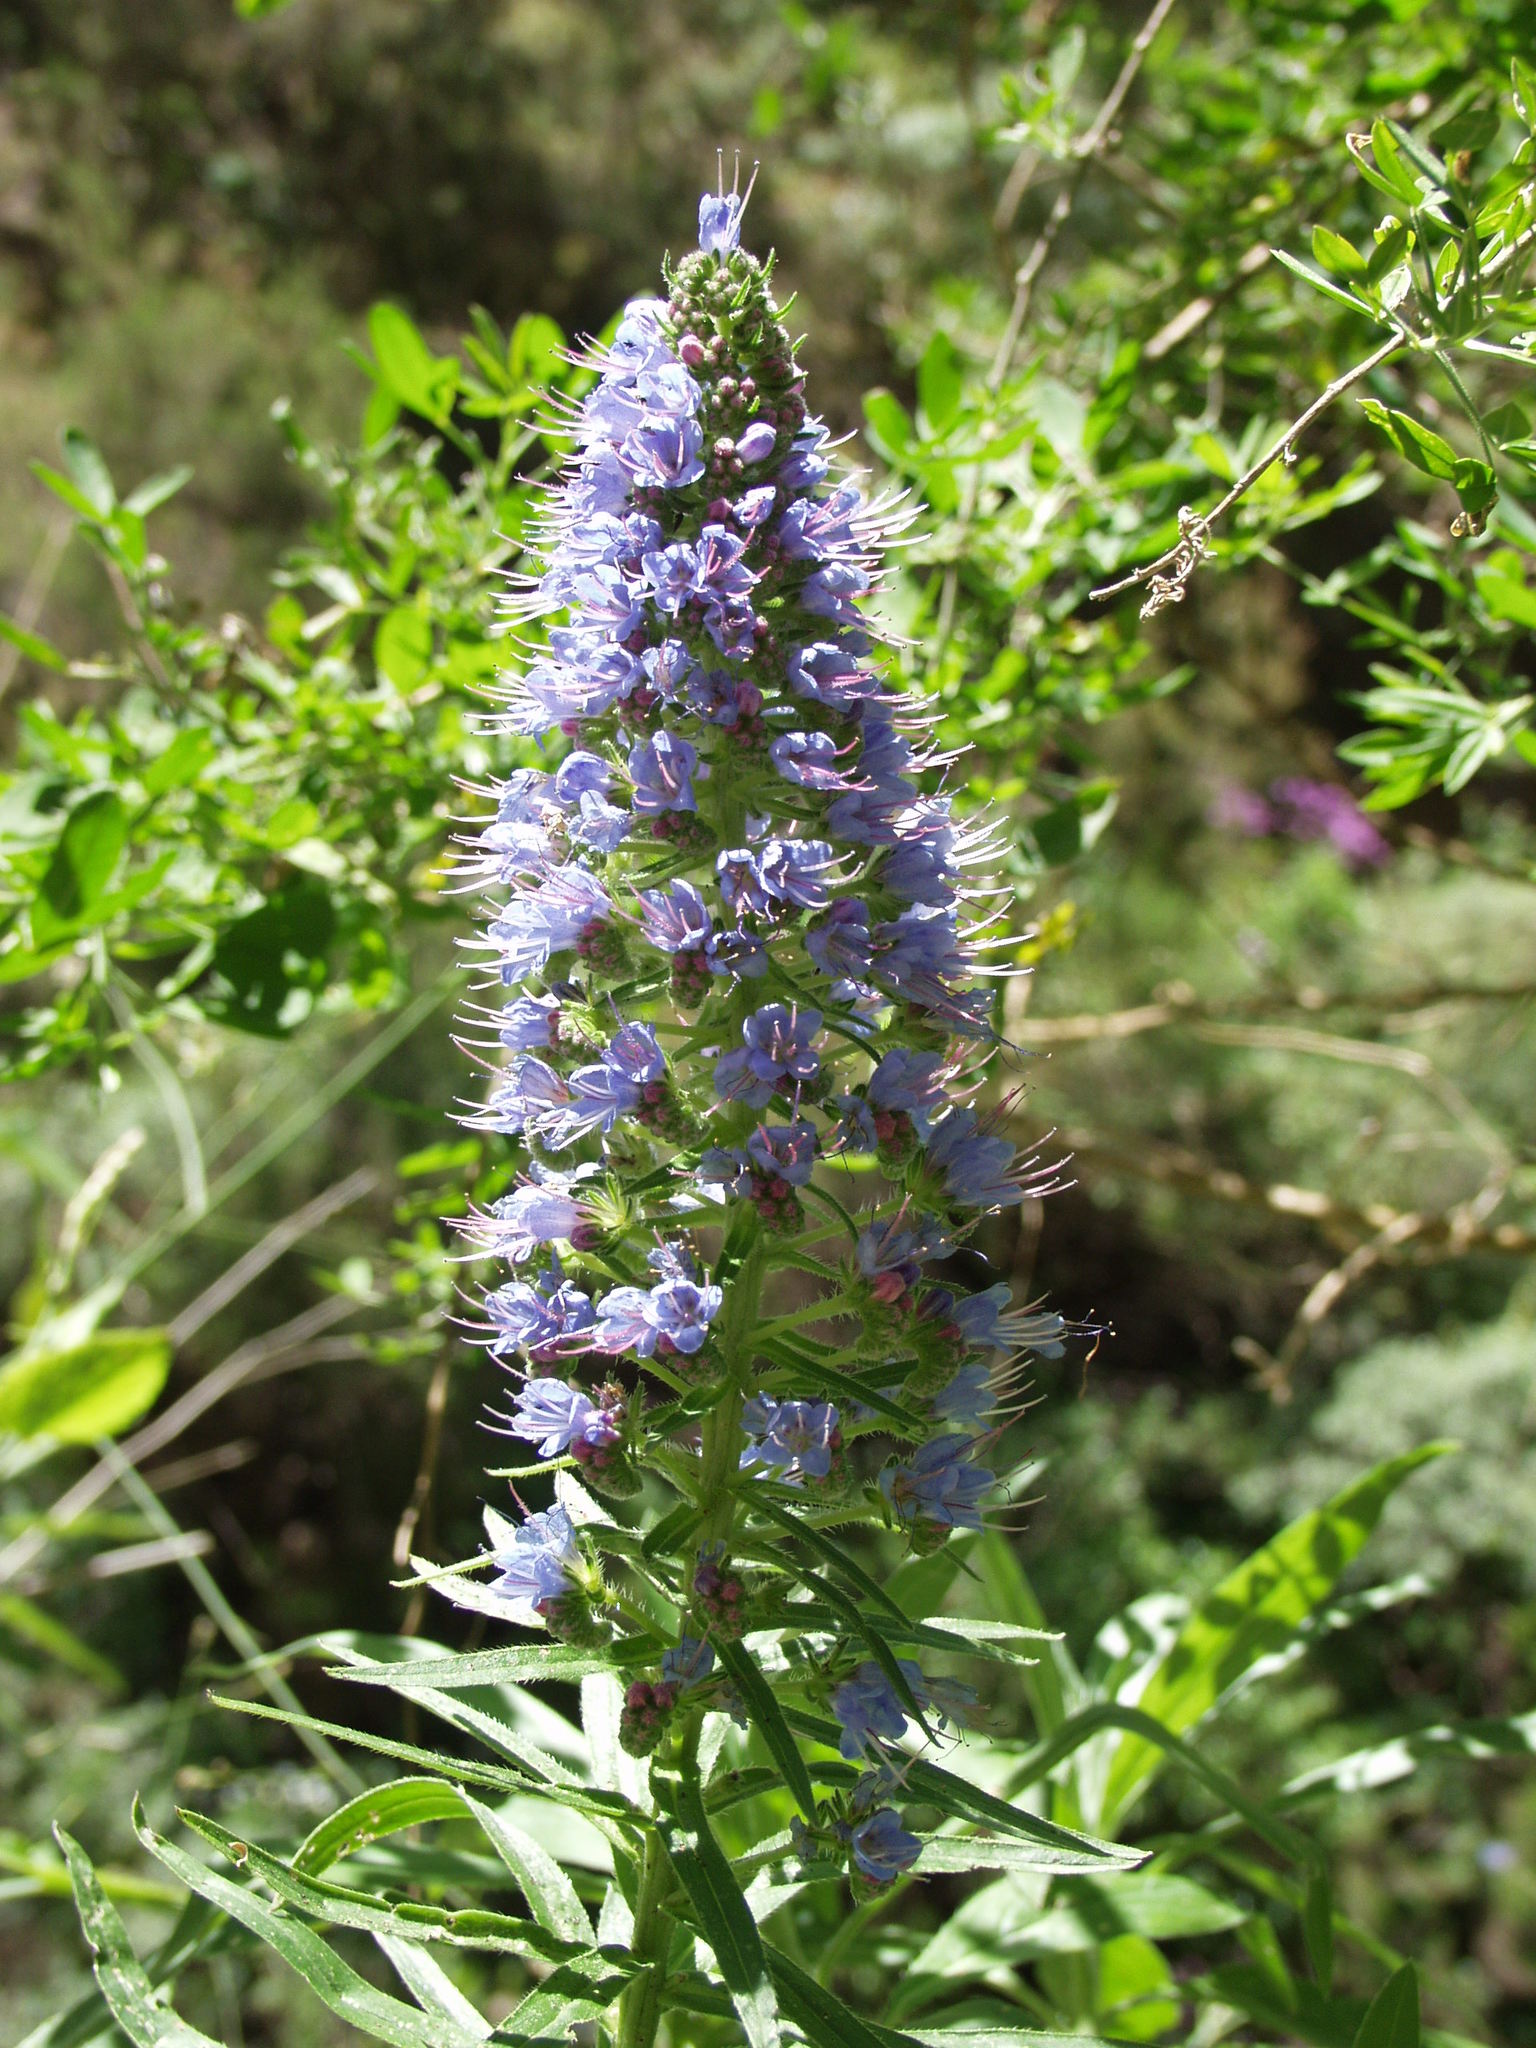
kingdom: Plantae
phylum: Tracheophyta
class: Magnoliopsida
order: Boraginales
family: Boraginaceae
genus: Echium
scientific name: Echium webbii
